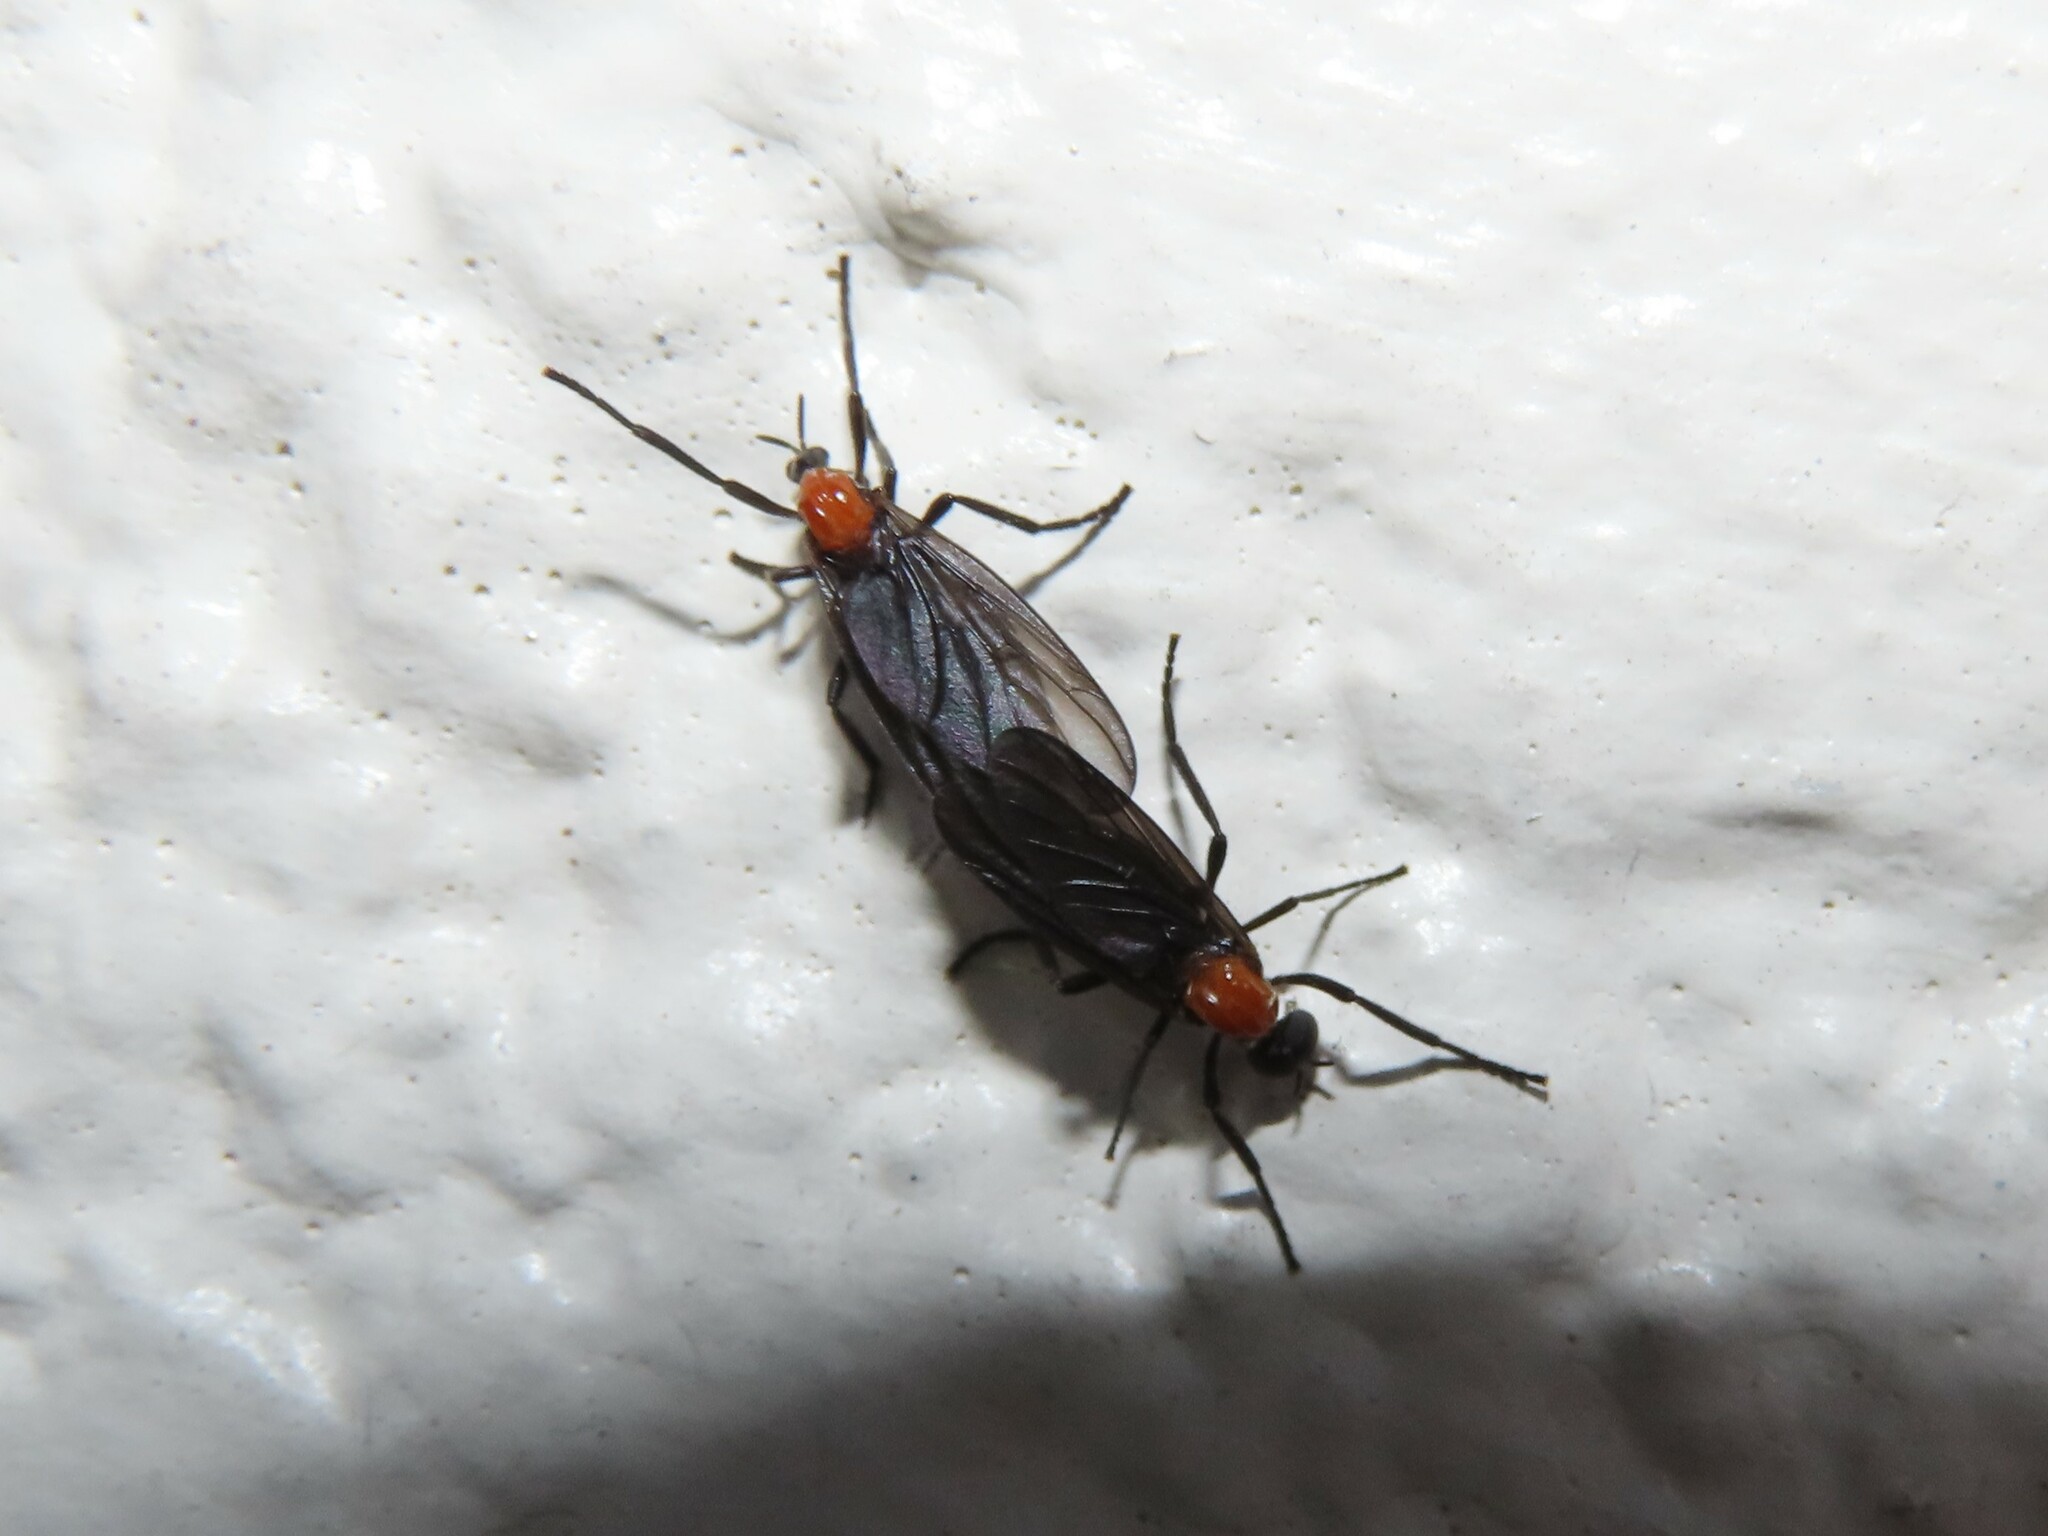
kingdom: Animalia
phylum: Arthropoda
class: Insecta
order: Diptera
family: Bibionidae
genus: Plecia
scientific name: Plecia nearctica
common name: March fly
